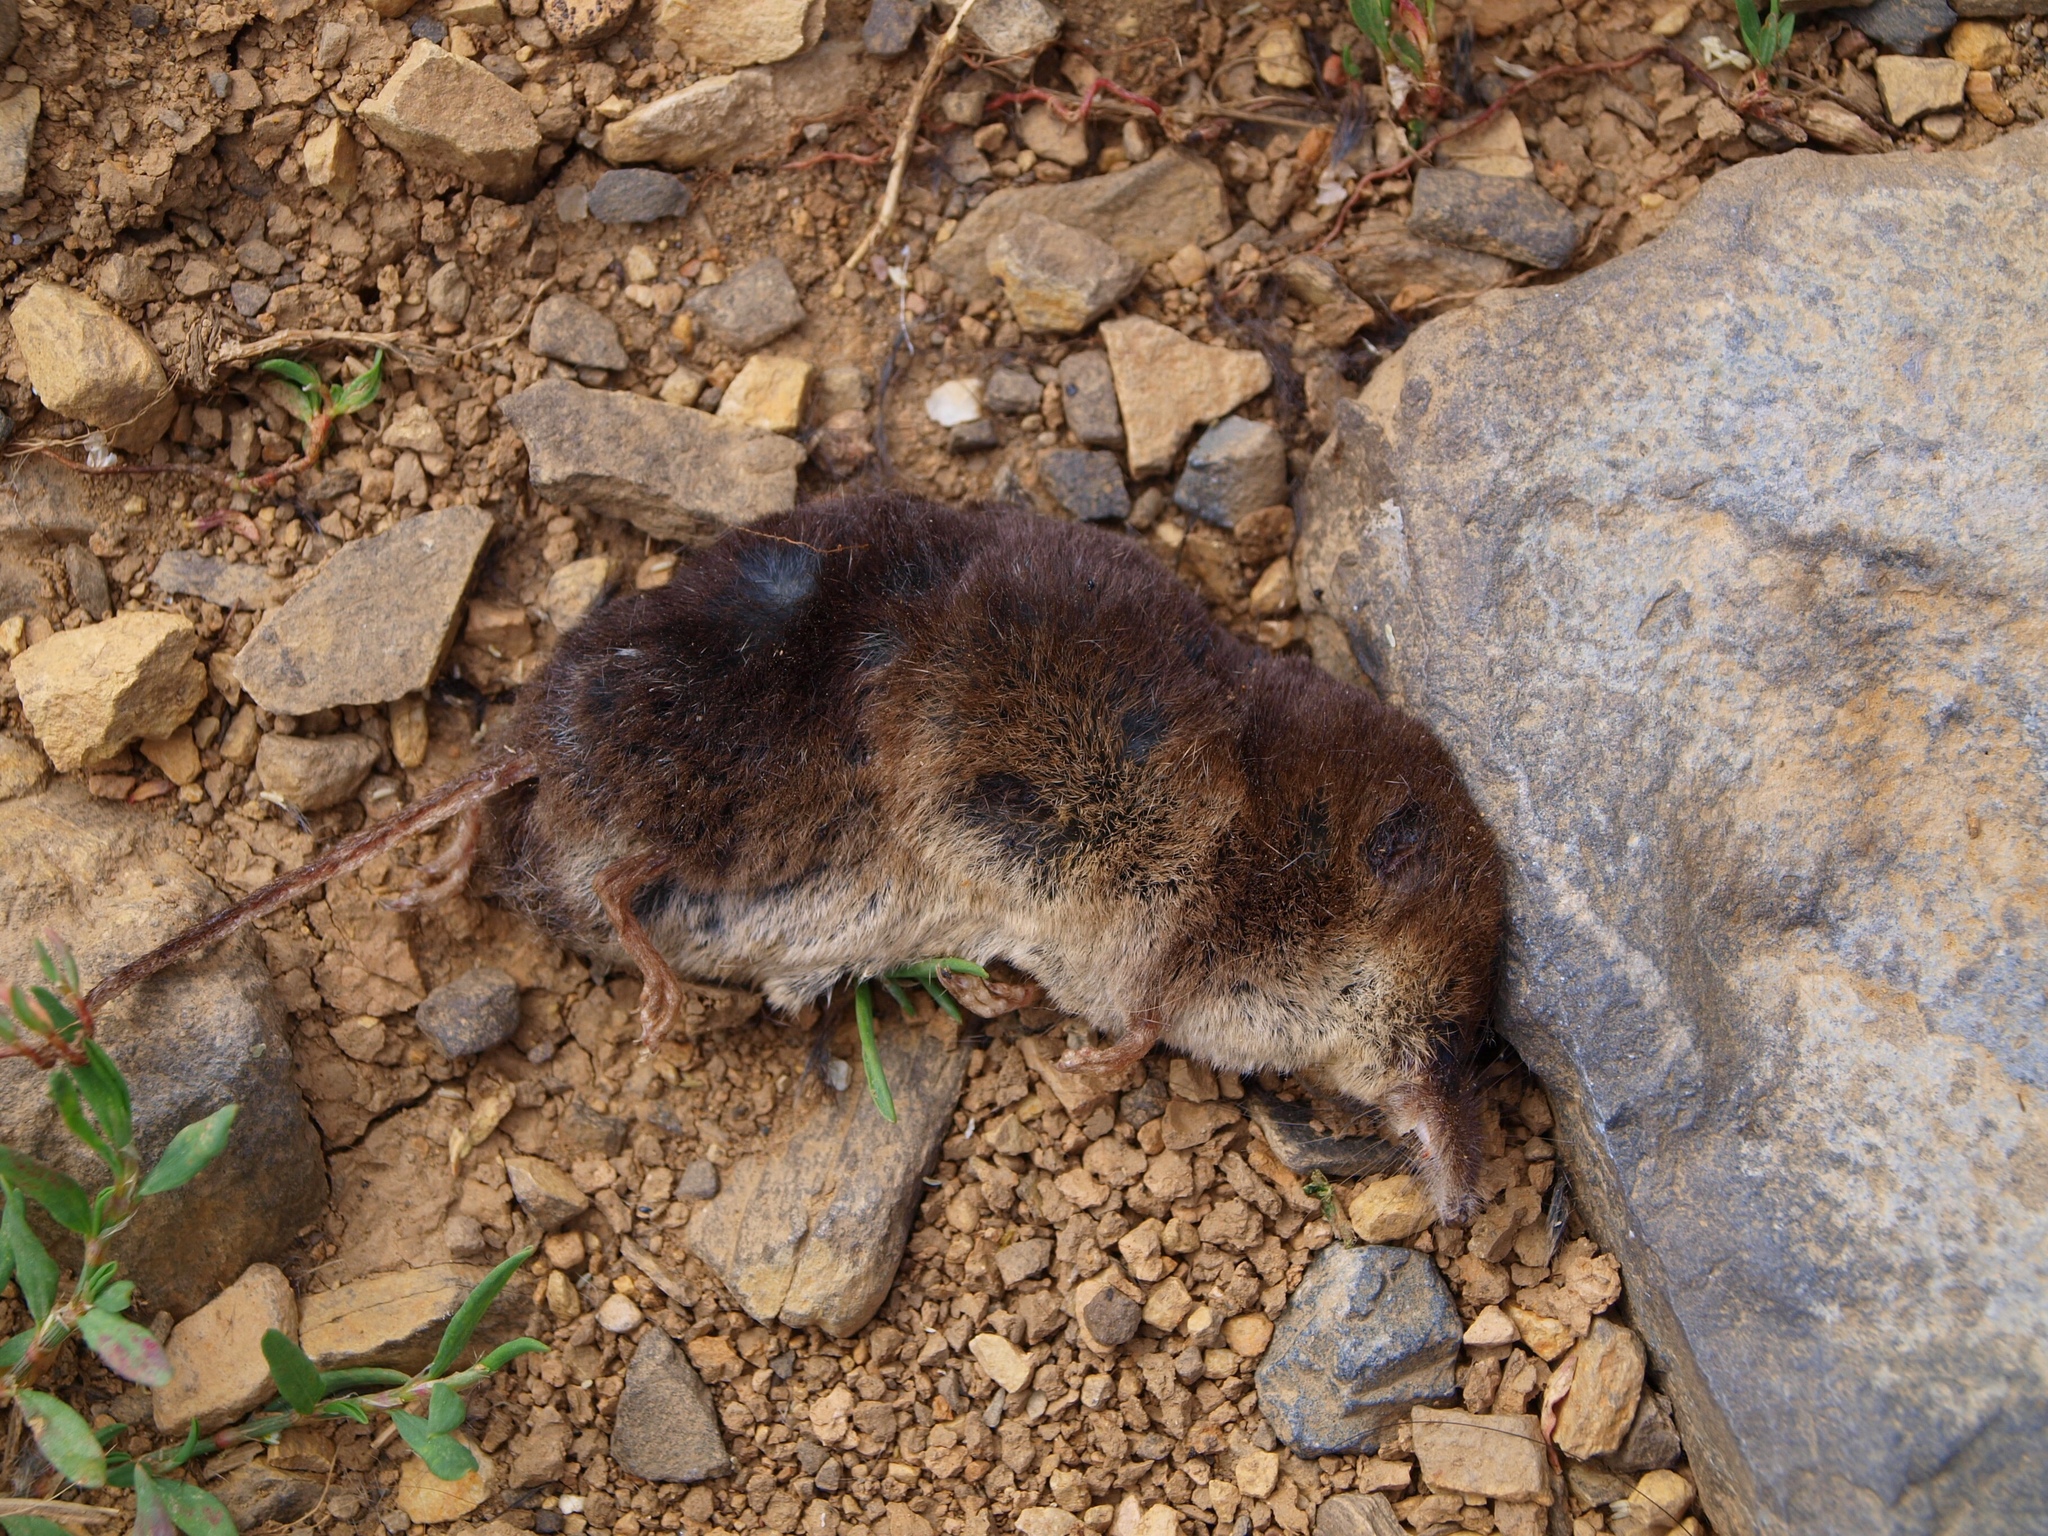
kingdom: Animalia
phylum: Chordata
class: Mammalia
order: Soricomorpha
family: Soricidae
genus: Sorex
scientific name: Sorex araneus
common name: Common shrew
